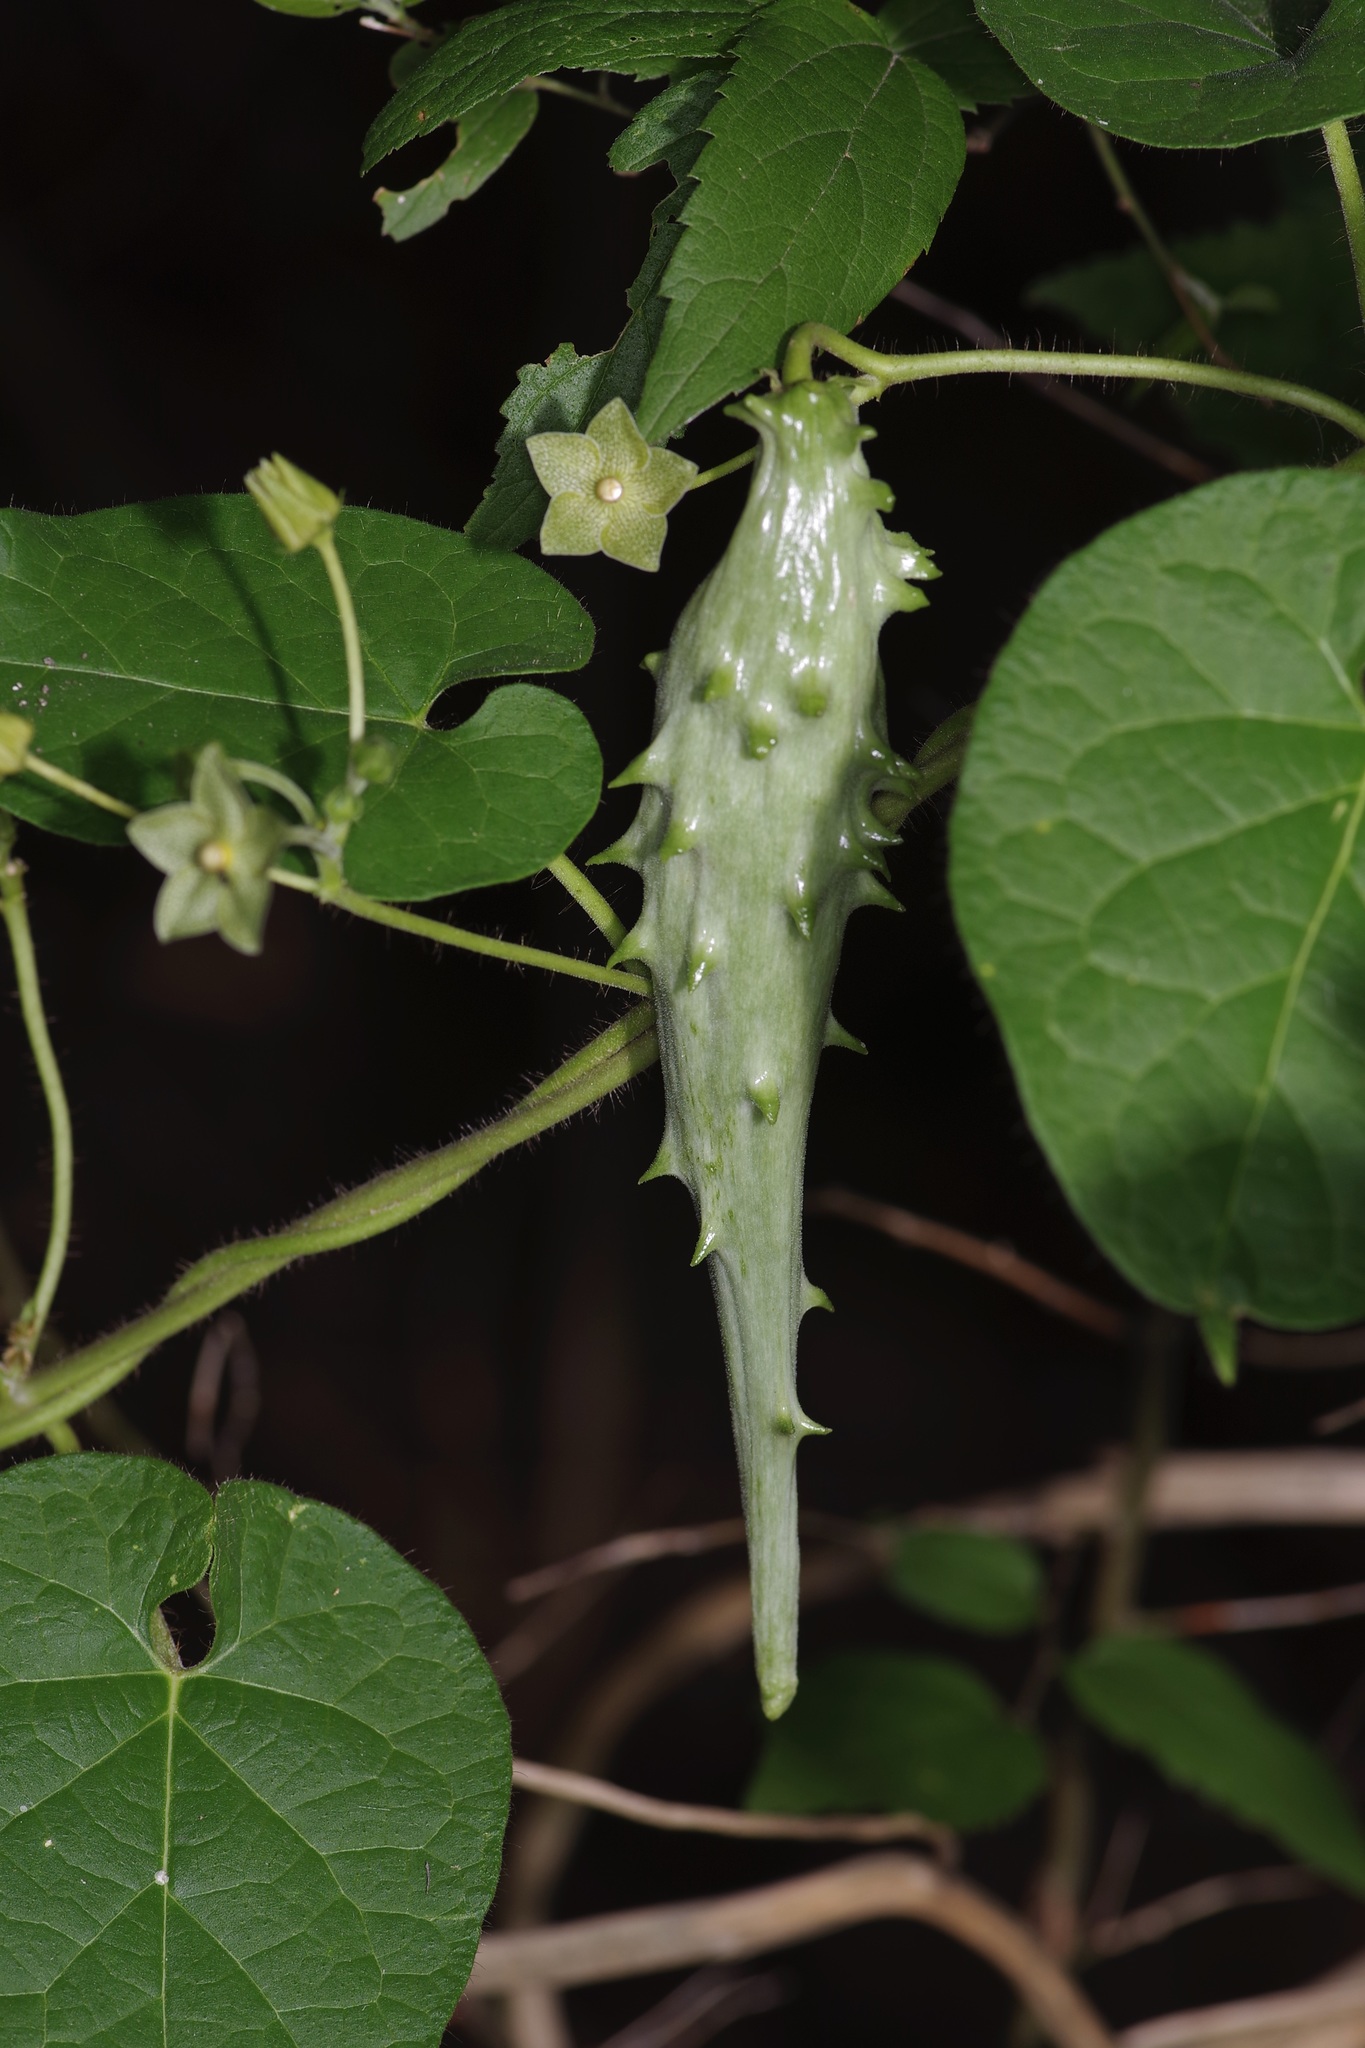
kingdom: Plantae
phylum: Tracheophyta
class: Magnoliopsida
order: Gentianales
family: Apocynaceae
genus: Dictyanthus
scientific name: Dictyanthus reticulatus
